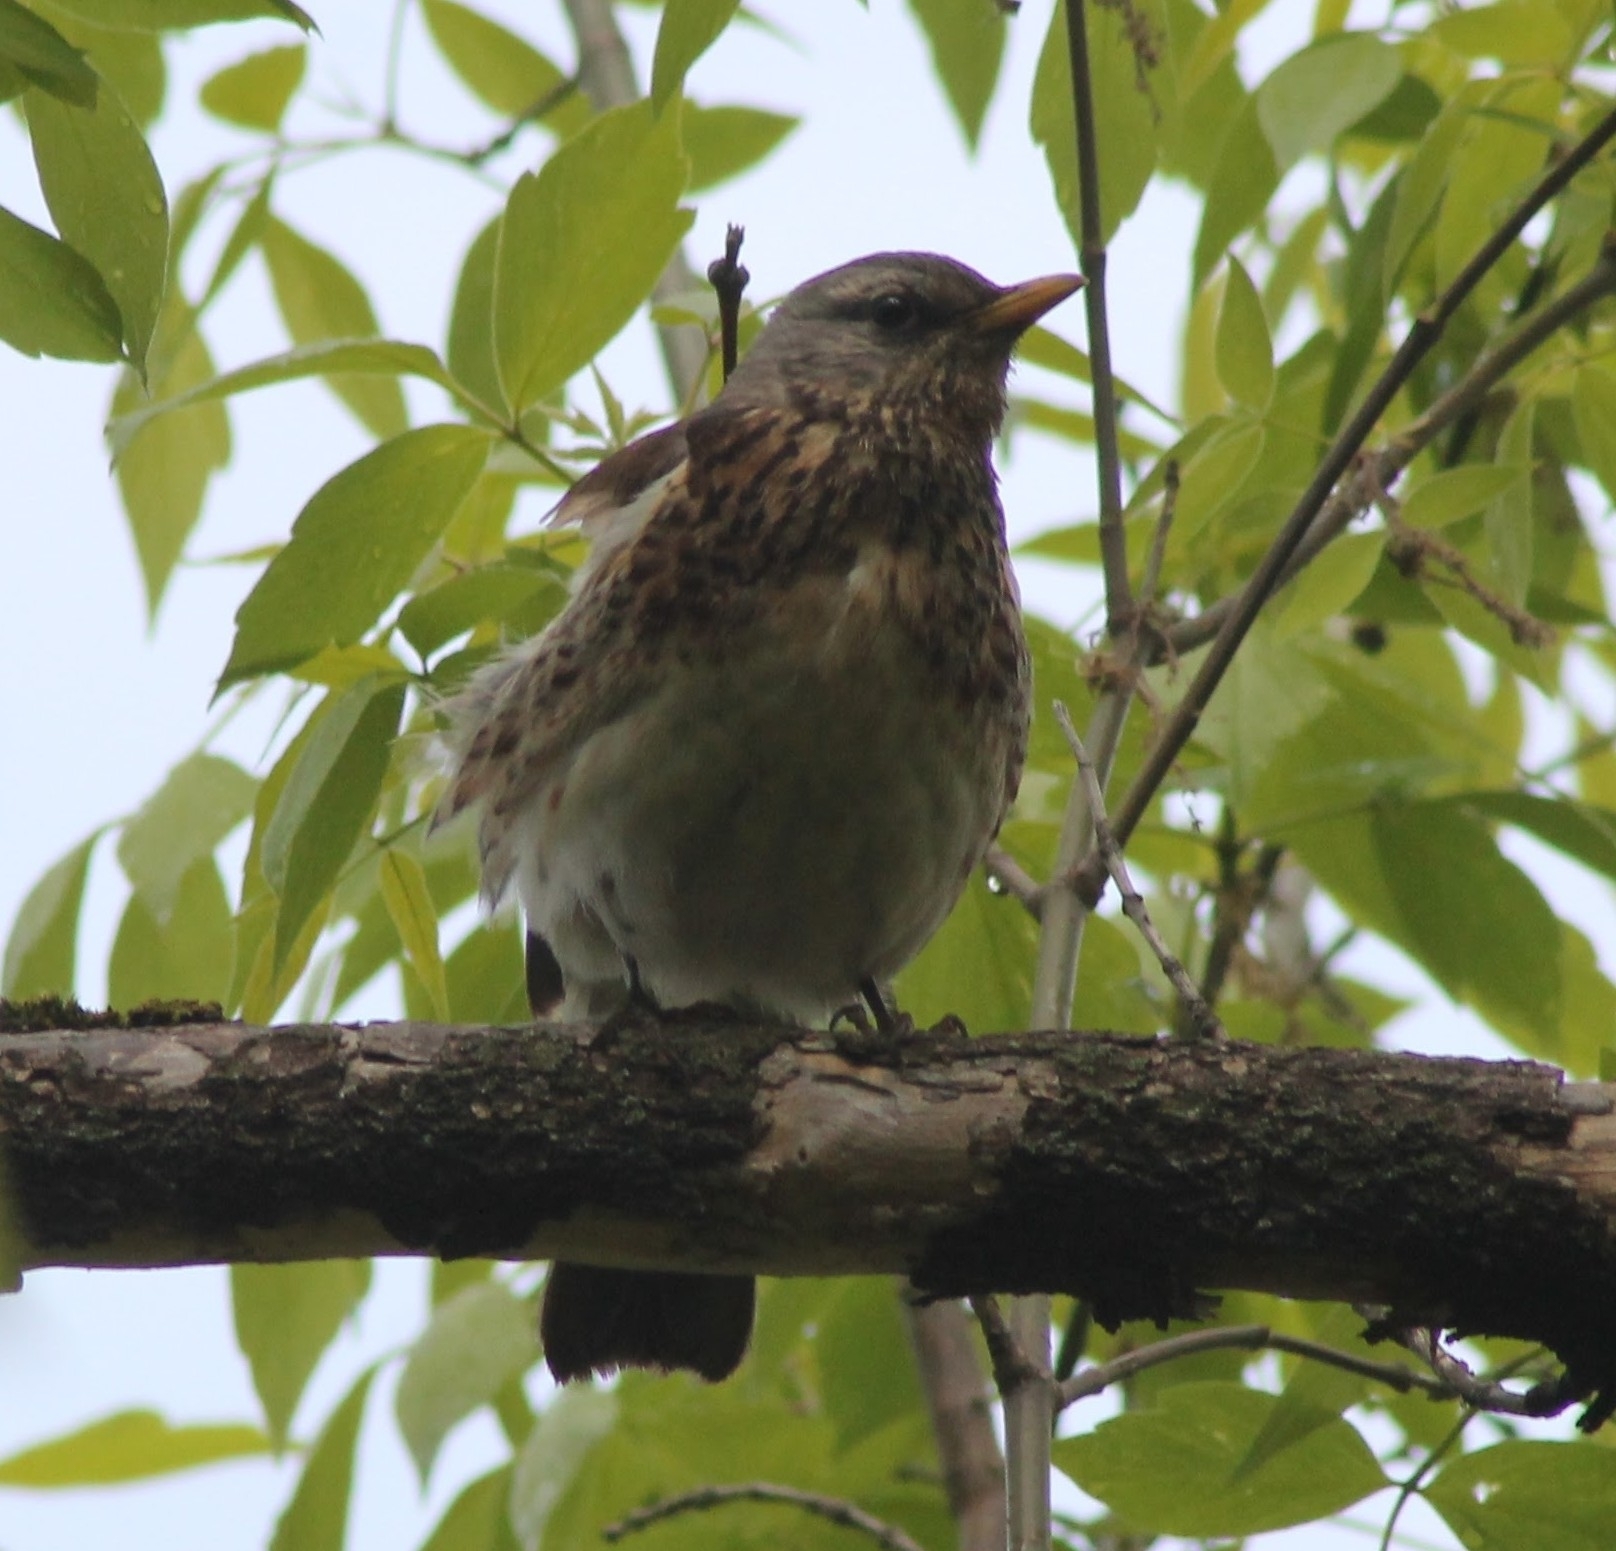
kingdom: Animalia
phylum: Chordata
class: Aves
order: Passeriformes
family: Turdidae
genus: Turdus
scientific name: Turdus pilaris
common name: Fieldfare
